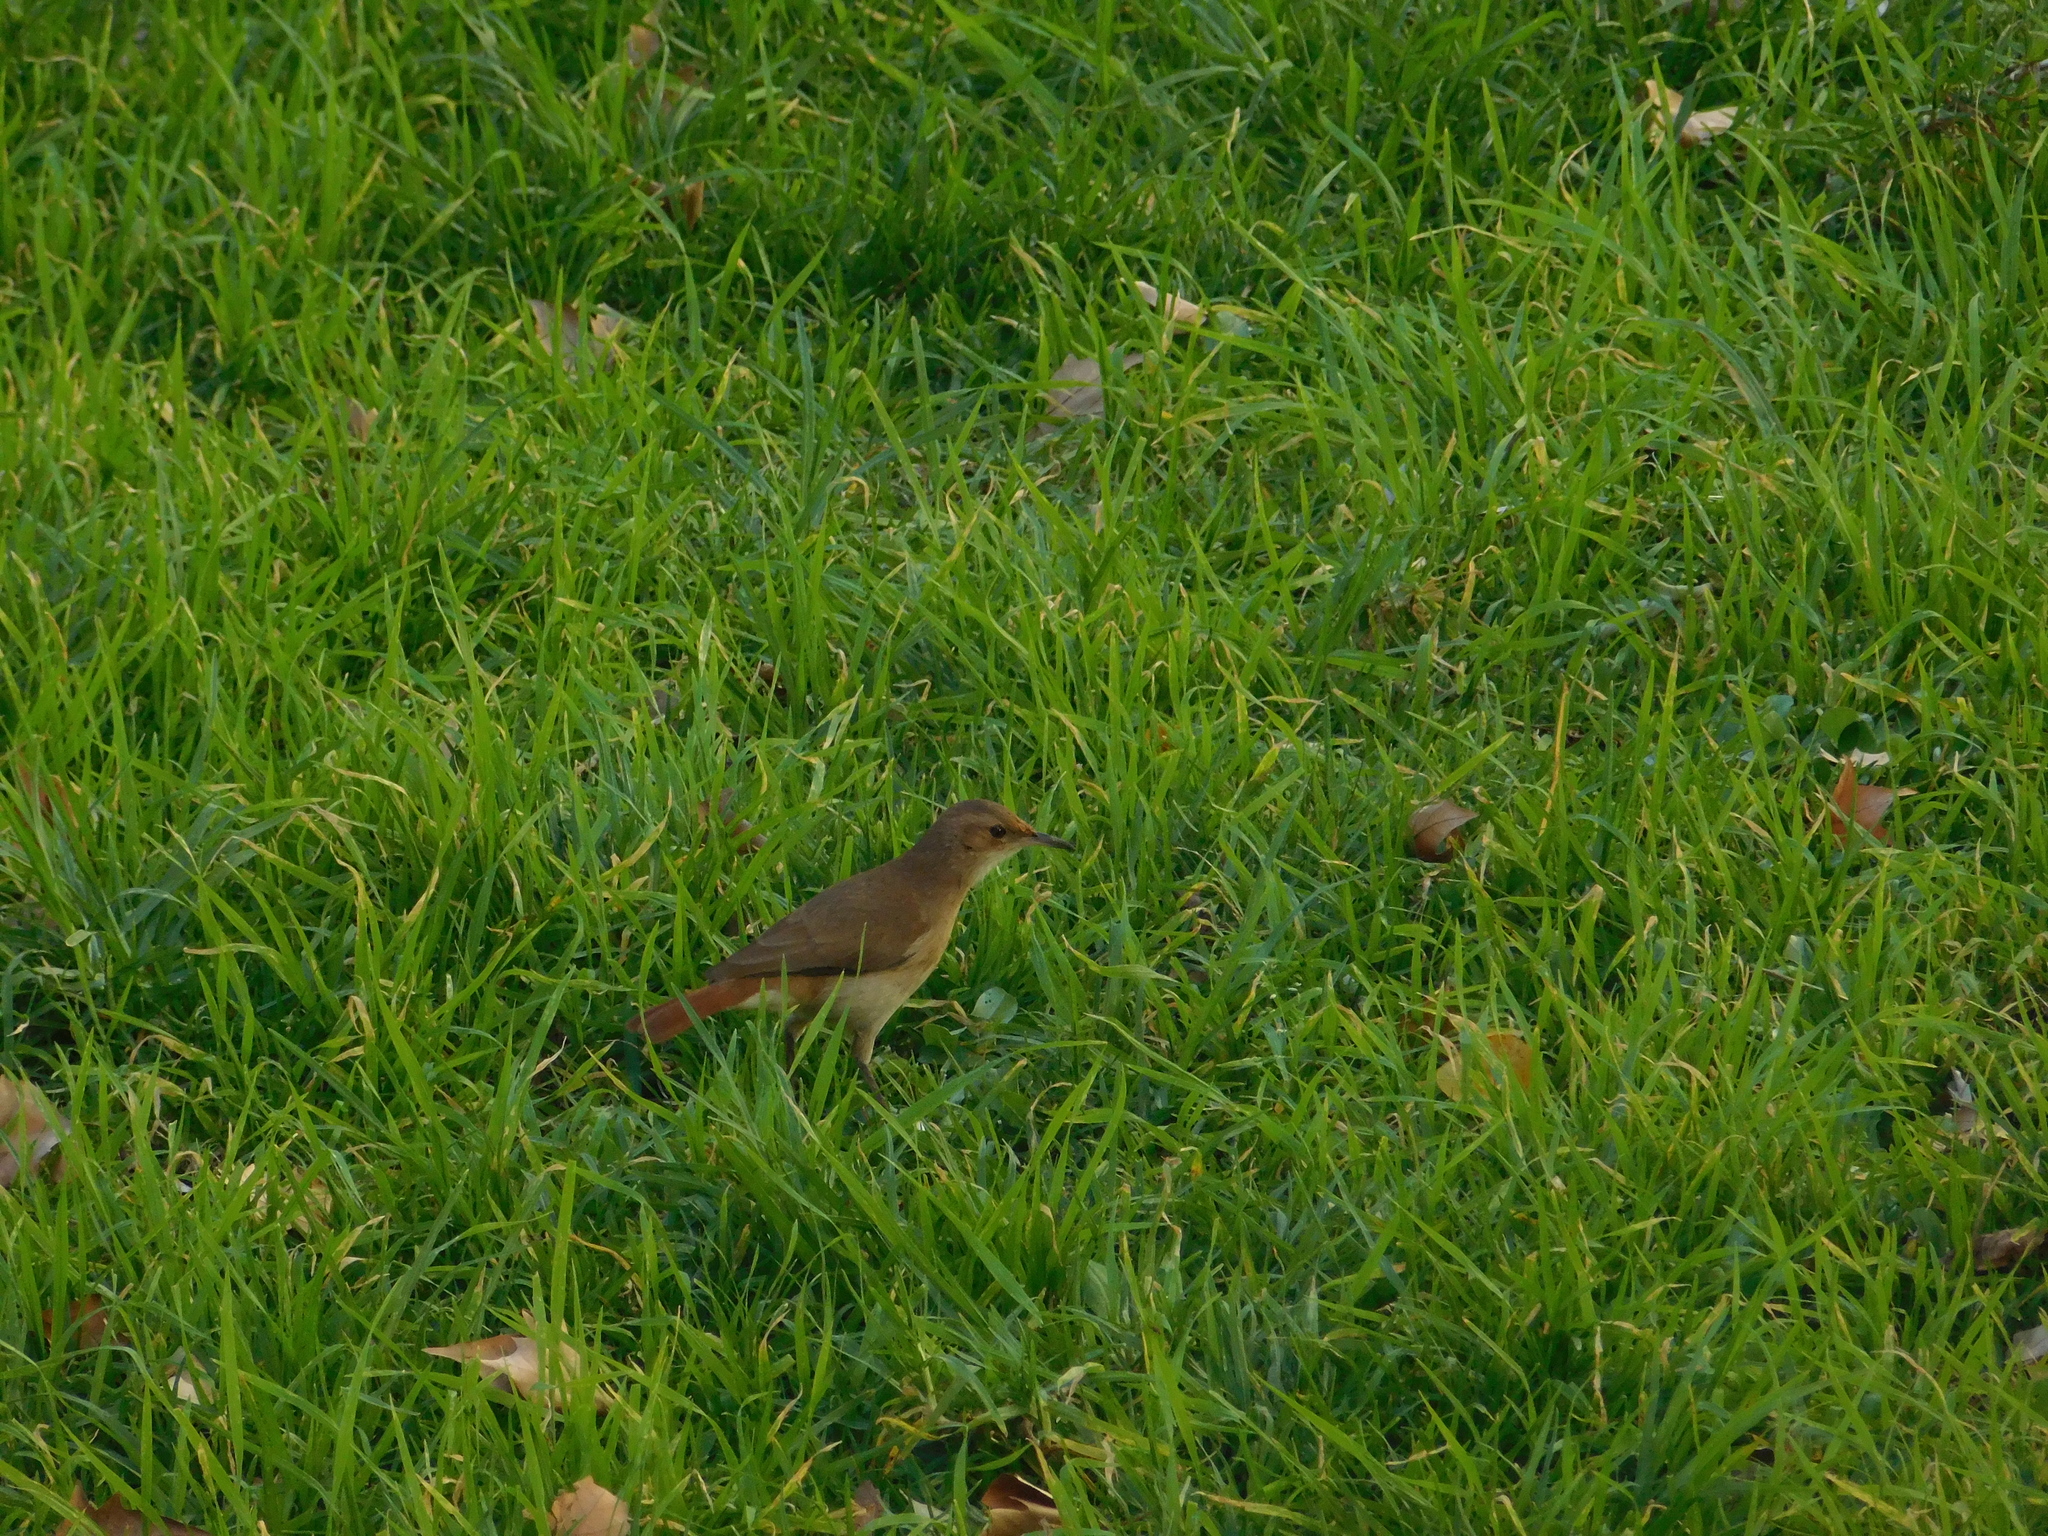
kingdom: Animalia
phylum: Chordata
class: Aves
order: Passeriformes
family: Furnariidae
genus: Furnarius
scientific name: Furnarius rufus
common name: Rufous hornero
